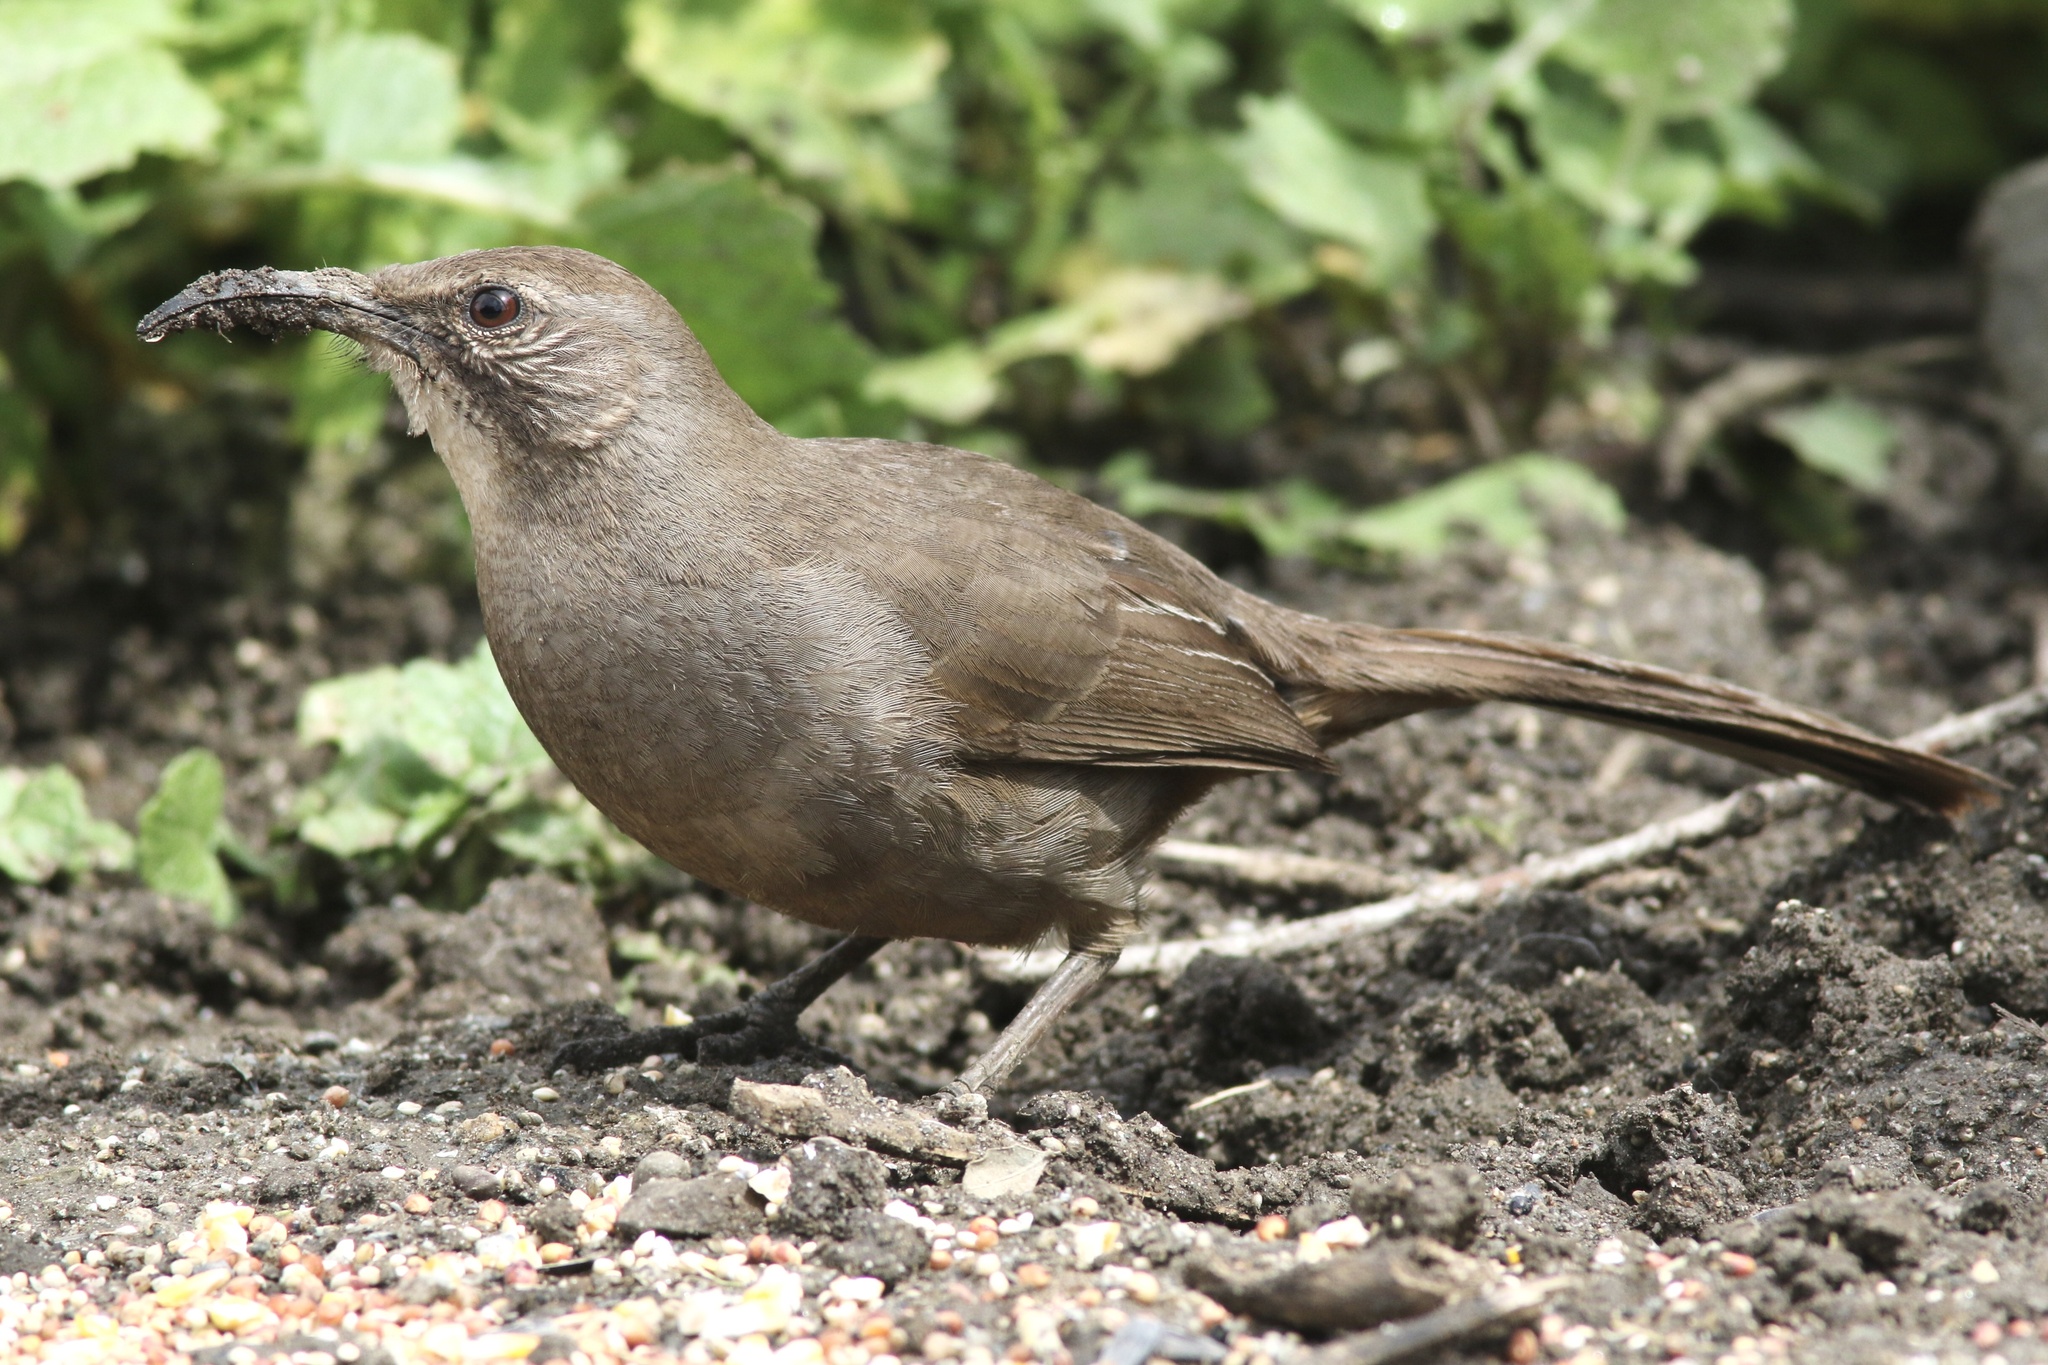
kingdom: Animalia
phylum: Chordata
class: Aves
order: Passeriformes
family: Mimidae
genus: Toxostoma
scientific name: Toxostoma redivivum
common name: California thrasher
